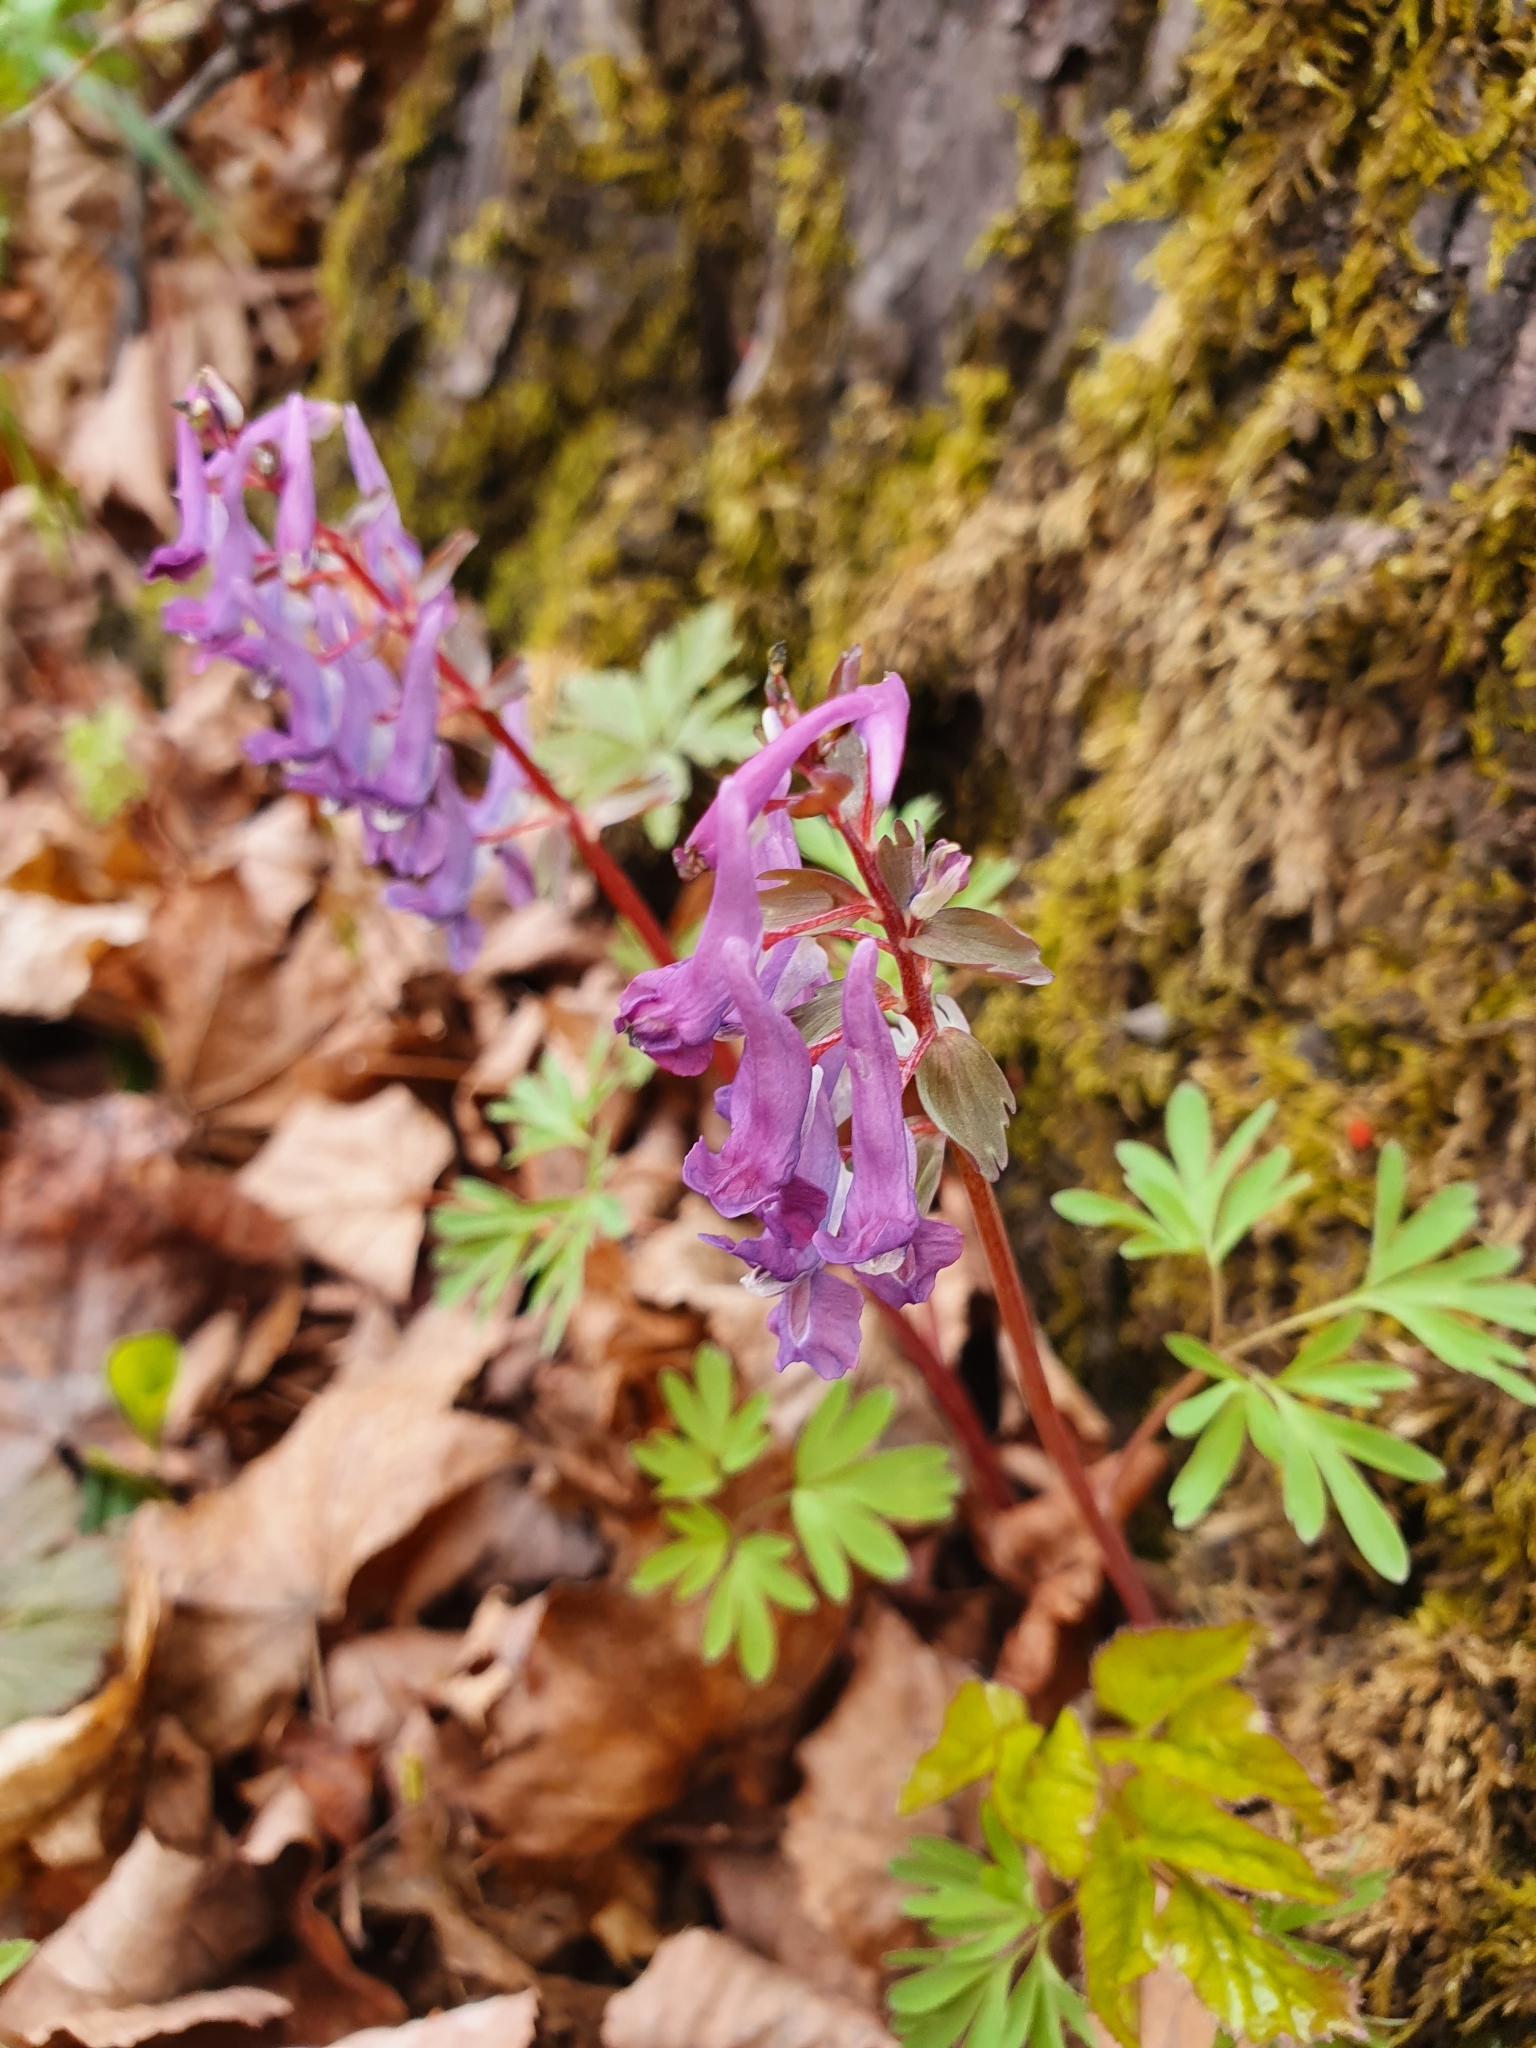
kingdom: Plantae
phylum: Tracheophyta
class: Magnoliopsida
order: Ranunculales
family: Papaveraceae
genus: Corydalis
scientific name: Corydalis solida
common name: Bird-in-a-bush
